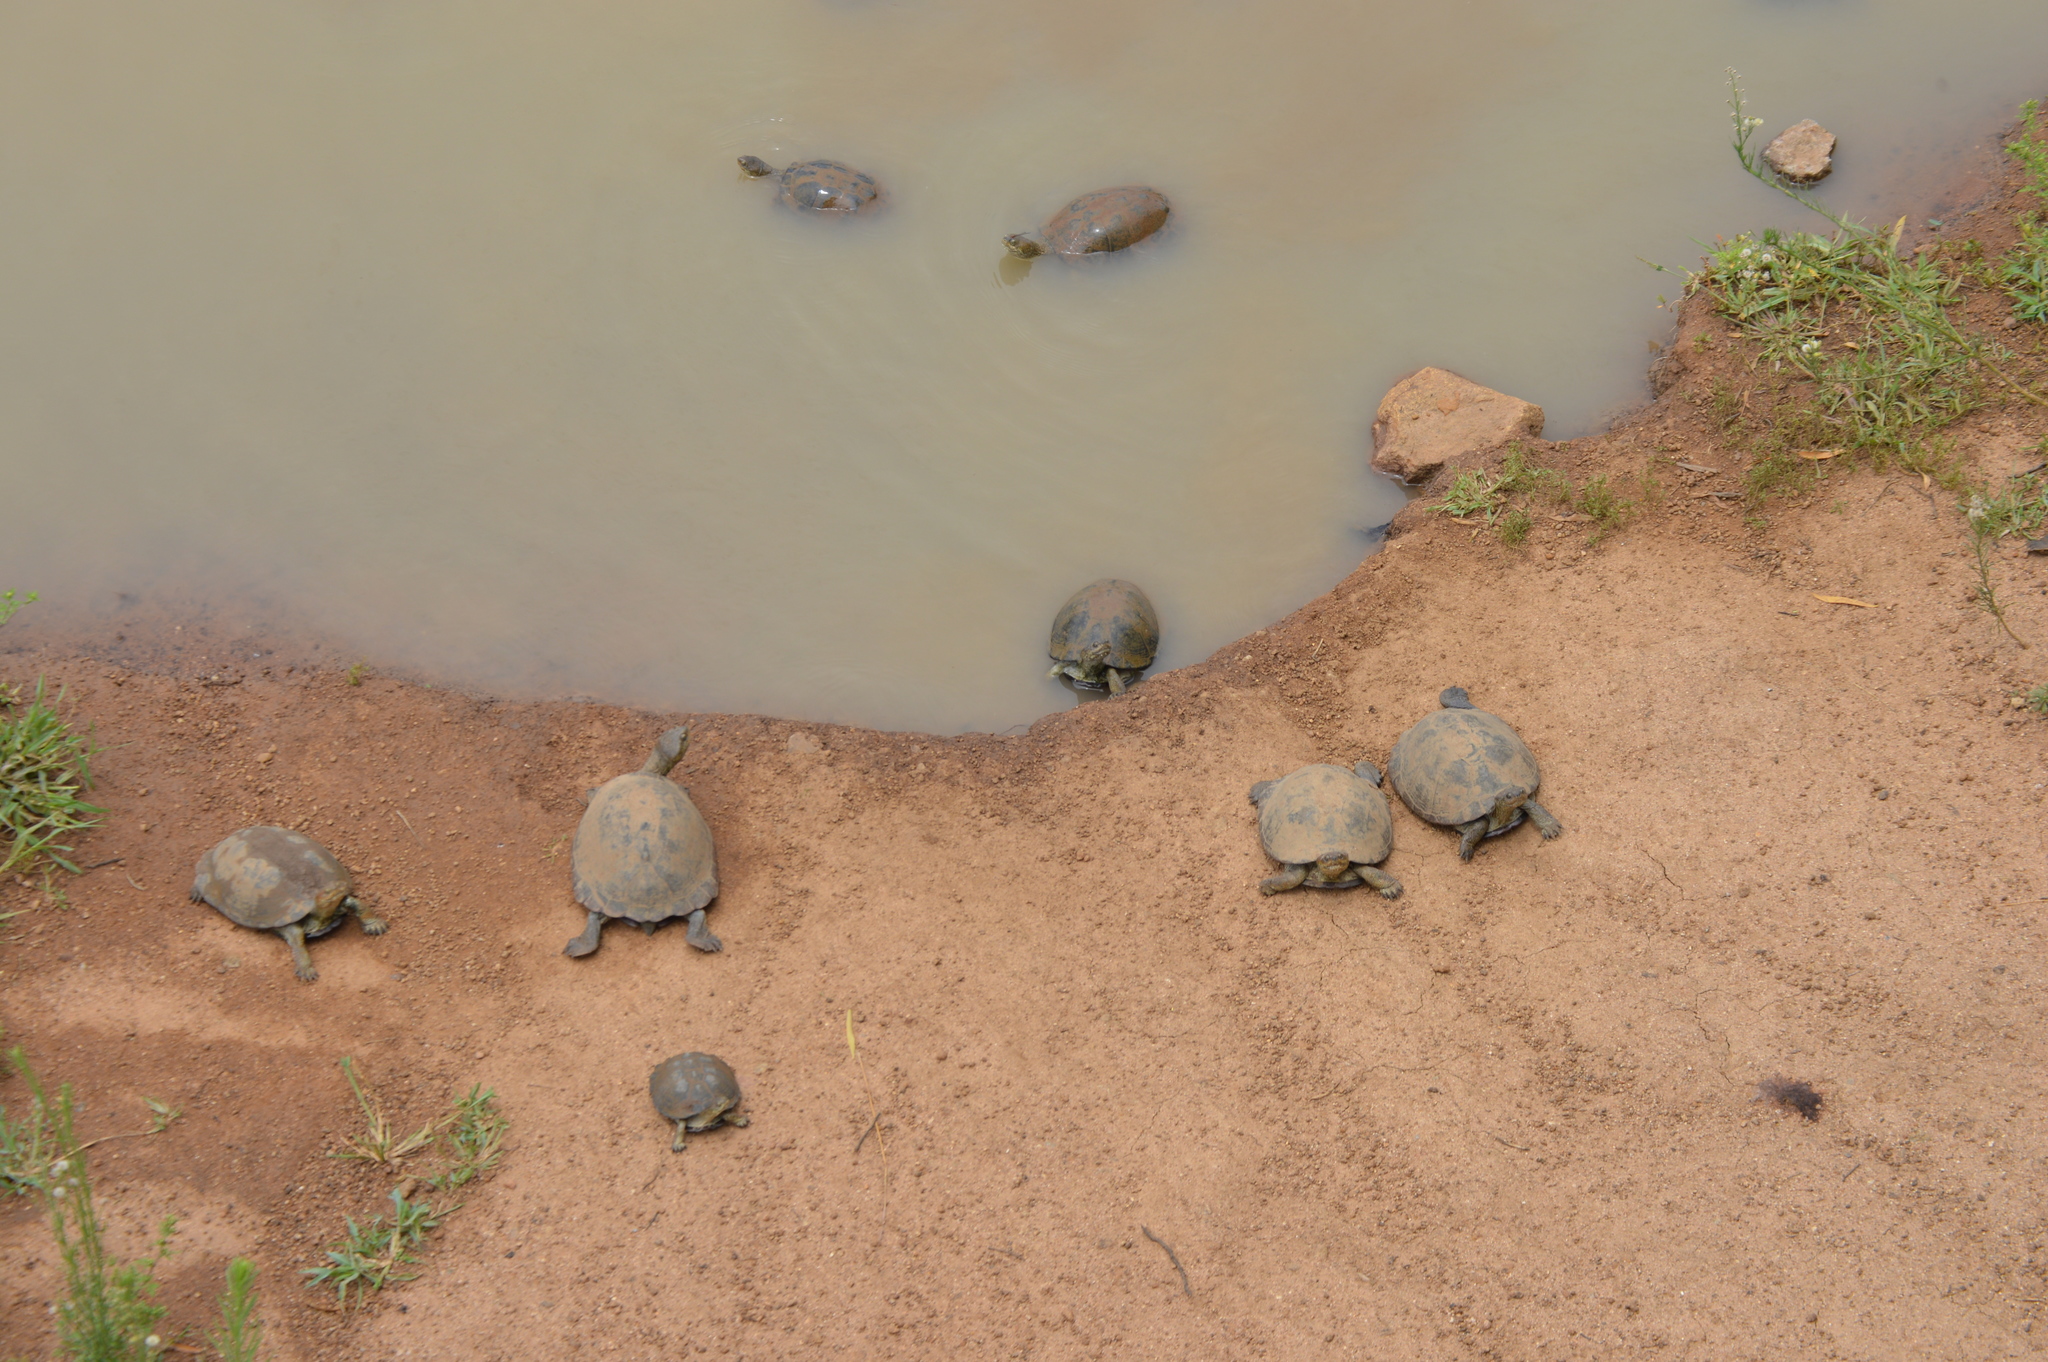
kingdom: Animalia
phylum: Chordata
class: Testudines
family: Pelomedusidae
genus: Pelusios
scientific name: Pelusios sinuatus
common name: Serrated hinged terrapin
